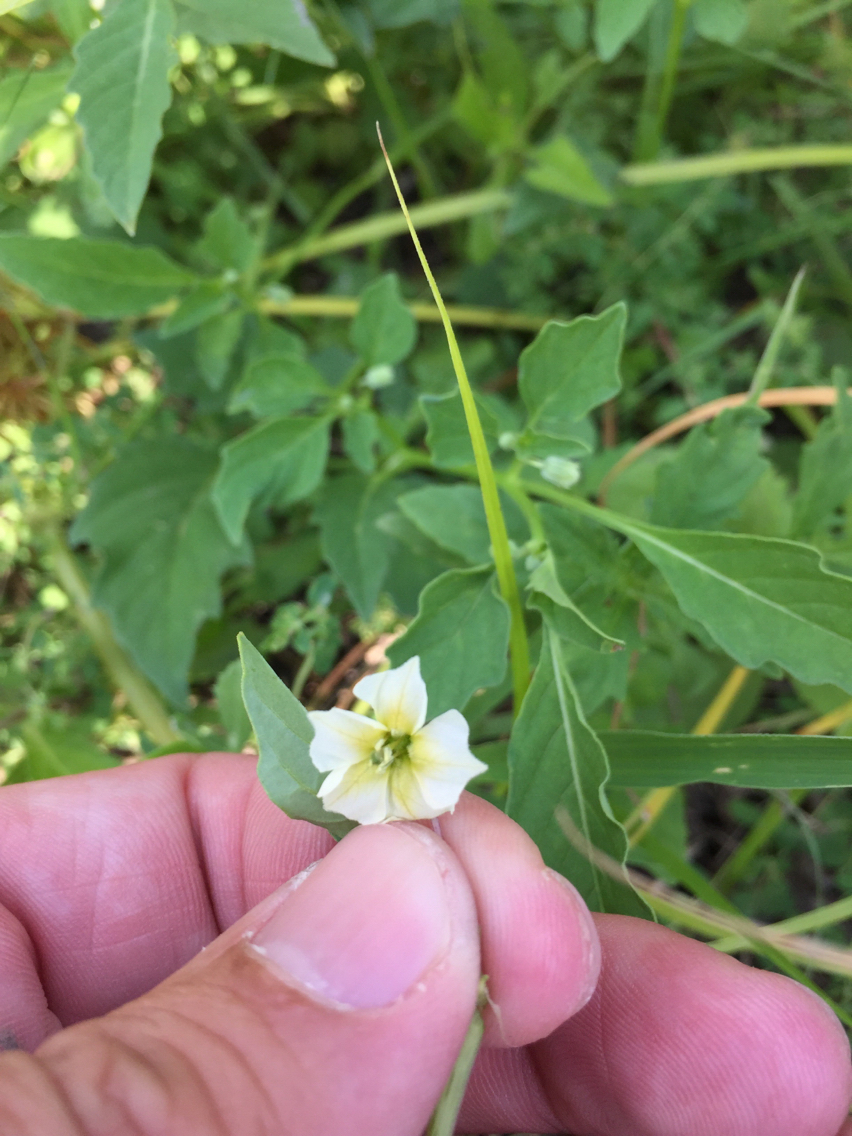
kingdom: Plantae
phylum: Tracheophyta
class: Magnoliopsida
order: Solanales
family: Solanaceae
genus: Physalis
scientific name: Physalis angulata
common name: Angular winter-cherry
